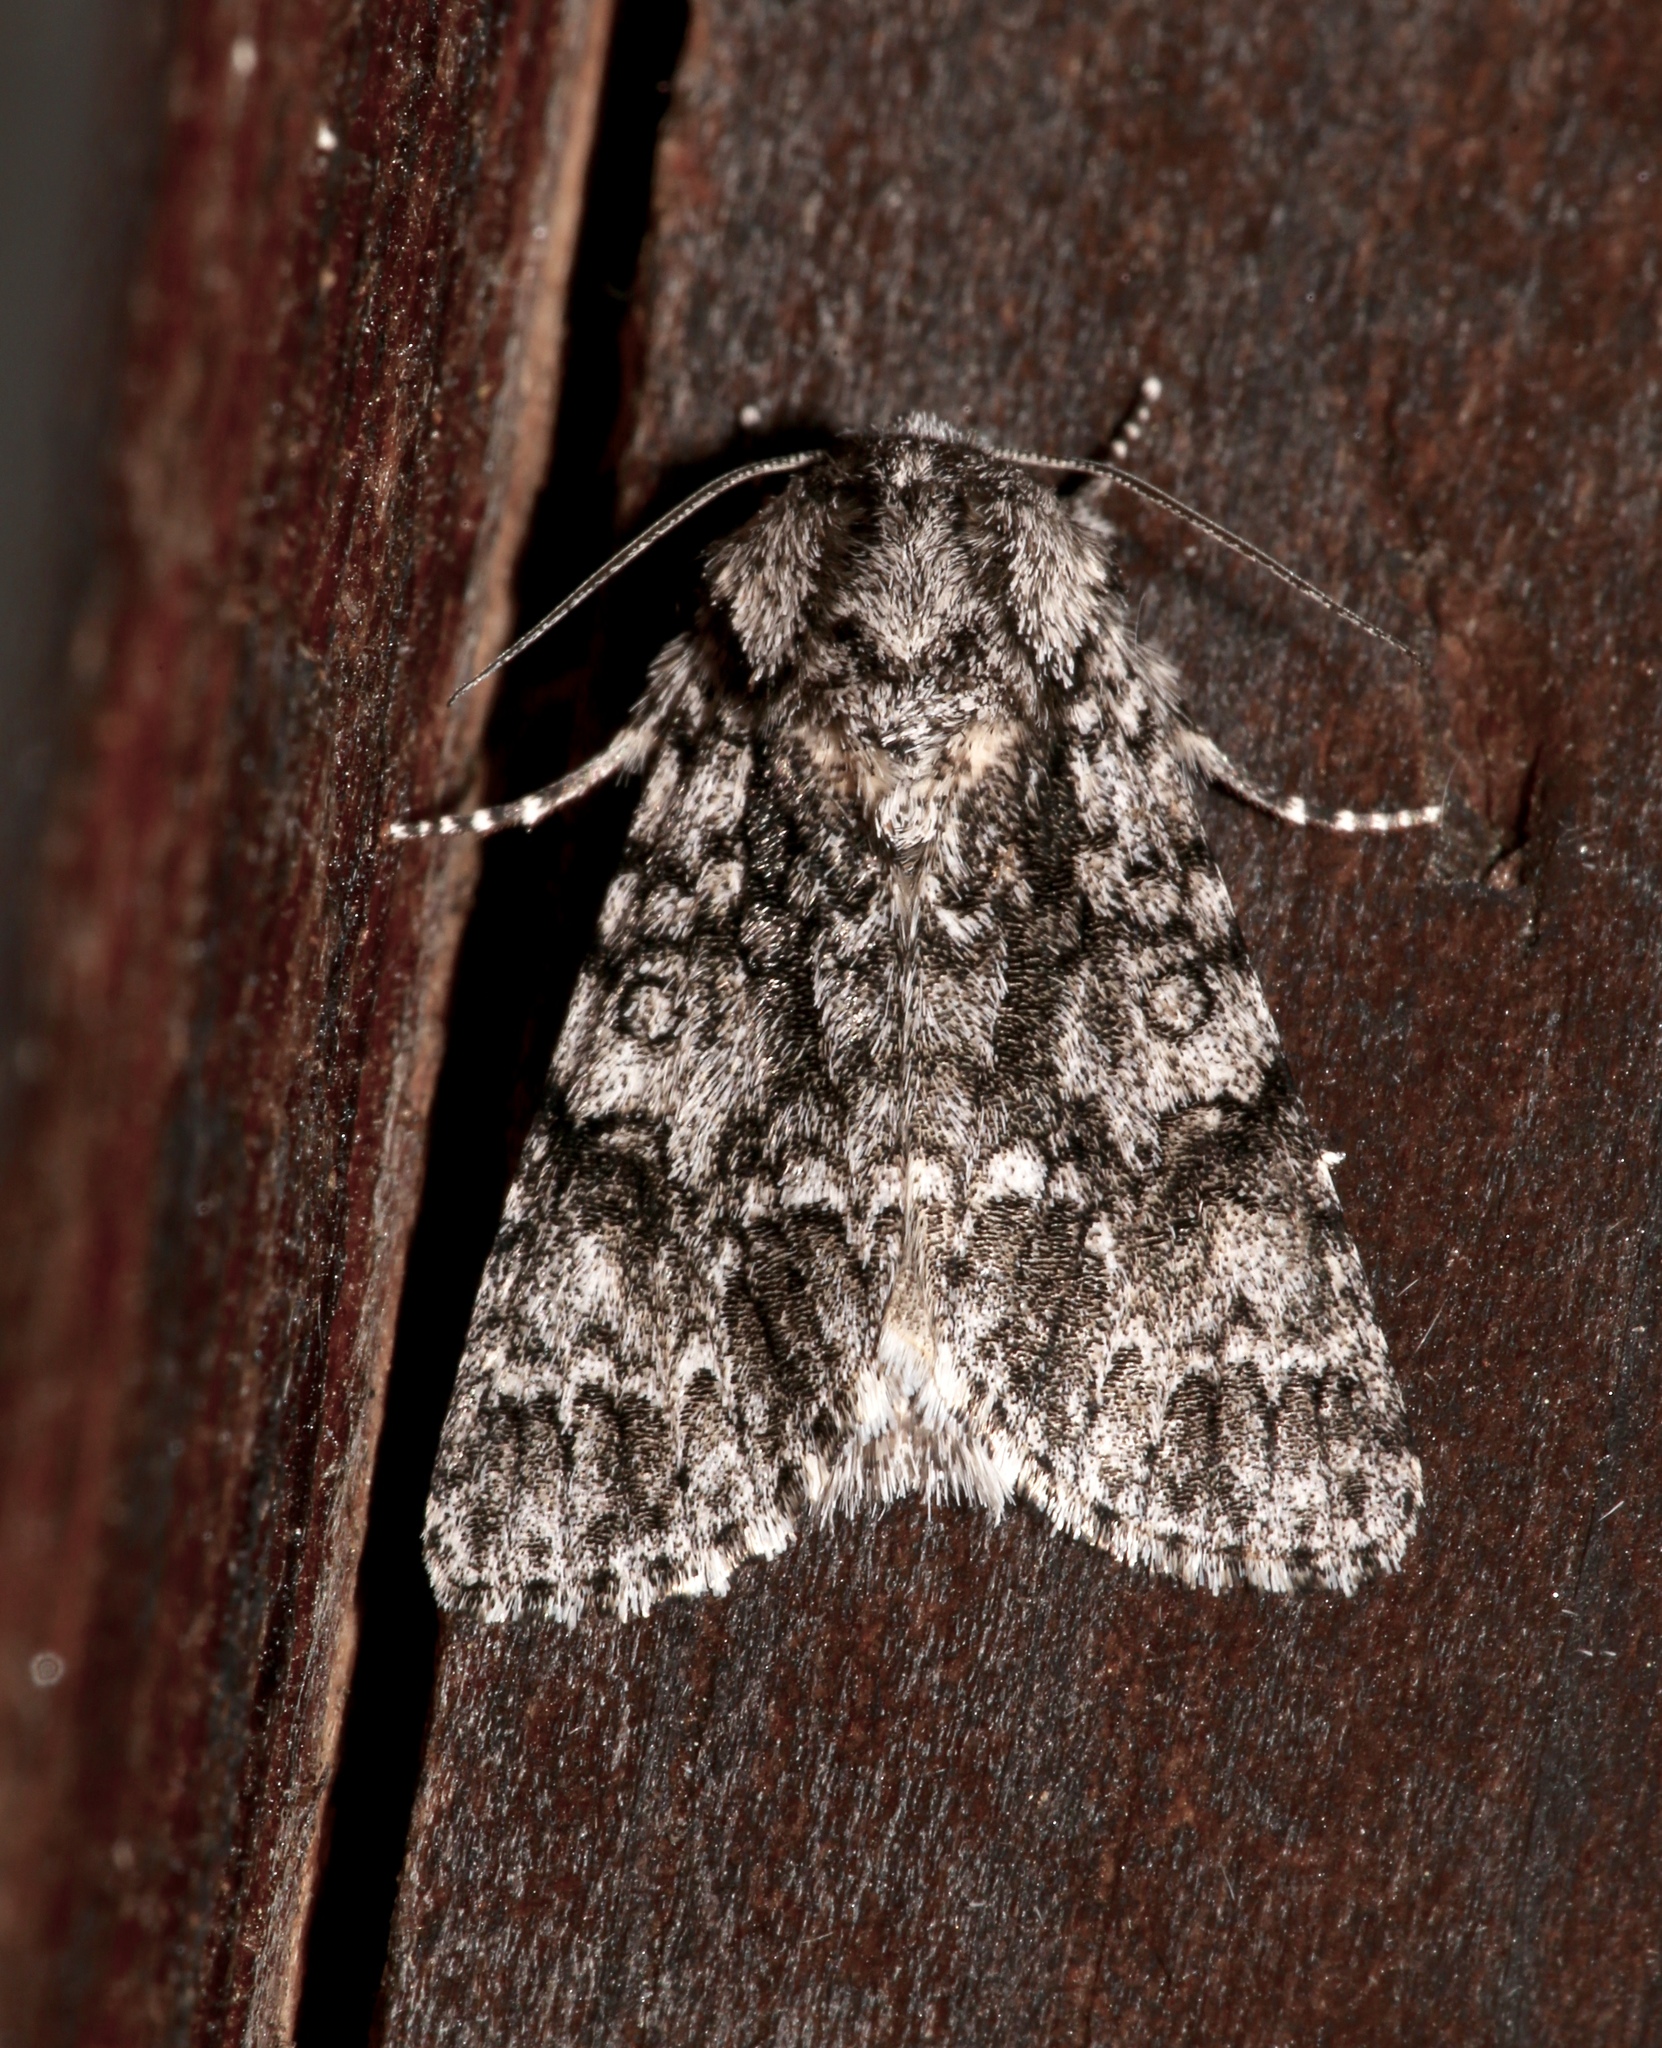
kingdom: Animalia
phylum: Arthropoda
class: Insecta
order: Lepidoptera
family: Noctuidae
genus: Acronicta
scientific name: Acronicta impressa
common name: Impressed dagger
